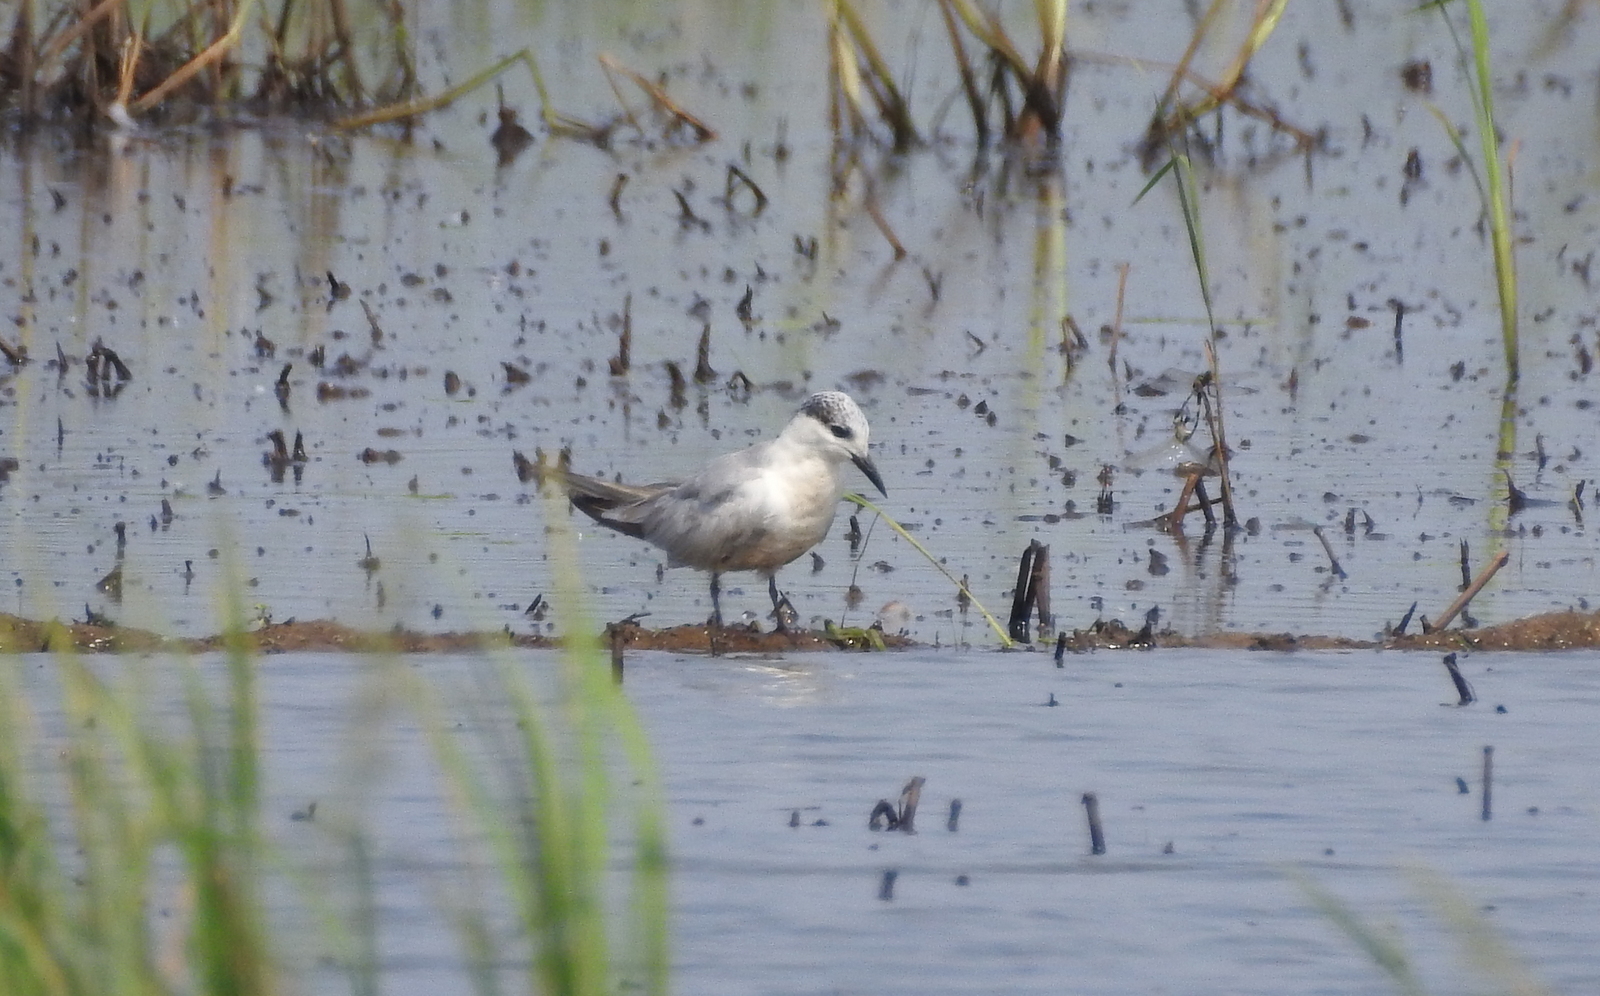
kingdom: Animalia
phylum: Chordata
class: Aves
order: Charadriiformes
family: Laridae
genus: Chlidonias
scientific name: Chlidonias hybrida
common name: Whiskered tern
